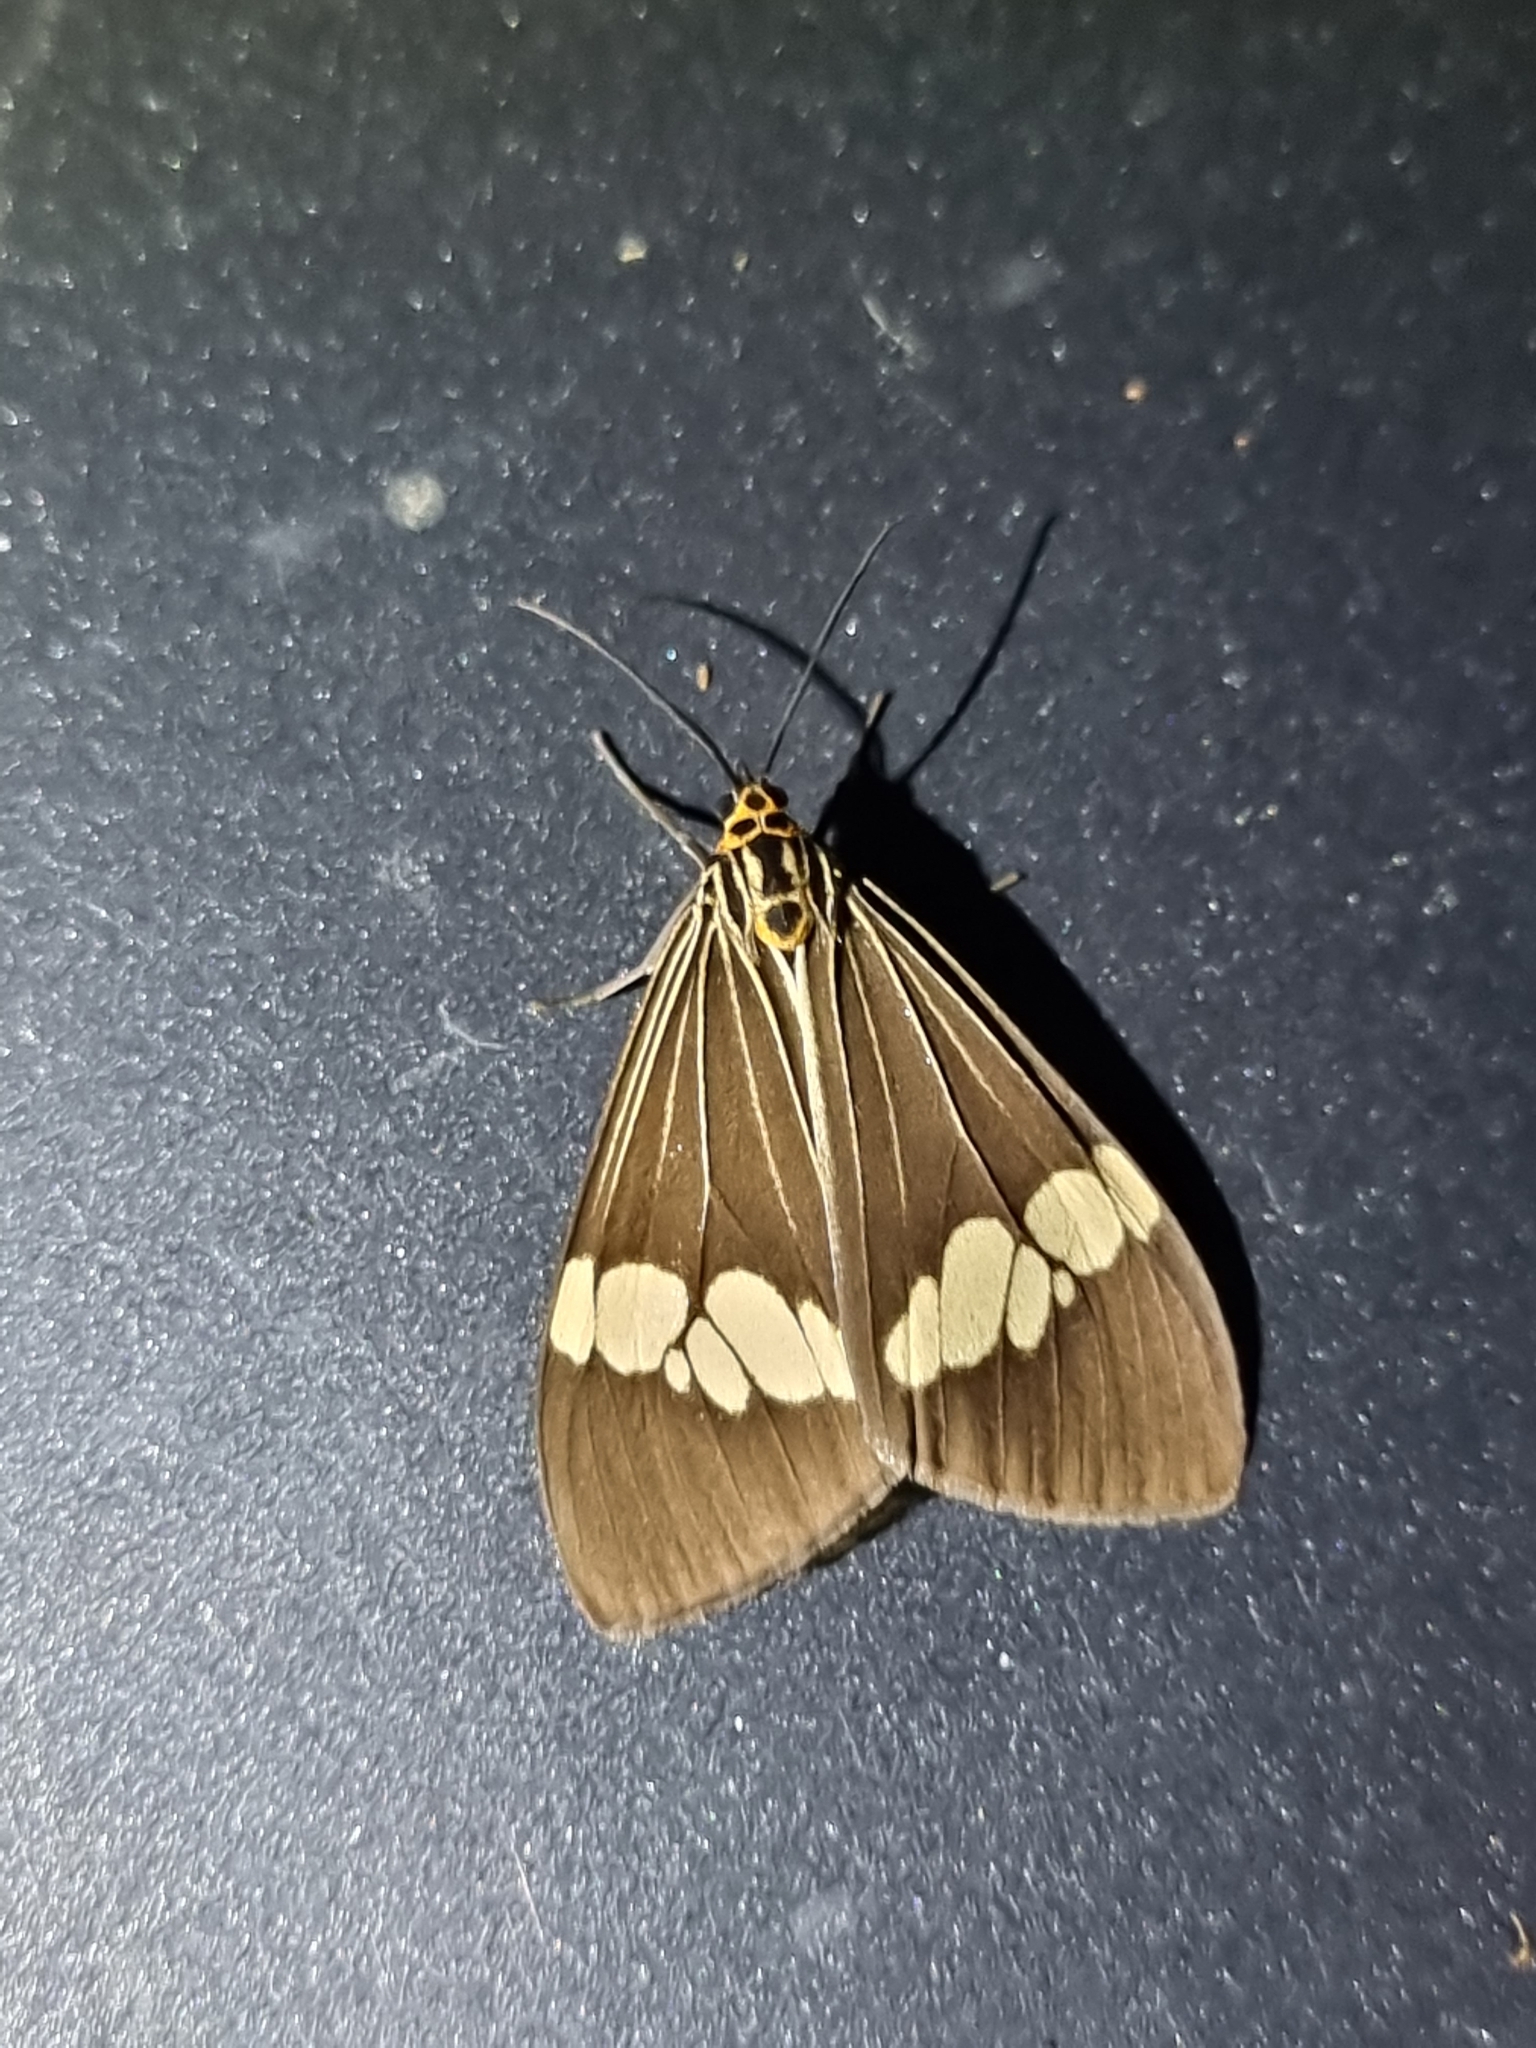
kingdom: Animalia
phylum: Arthropoda
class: Insecta
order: Lepidoptera
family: Erebidae
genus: Nyctemera
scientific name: Nyctemera baulus
